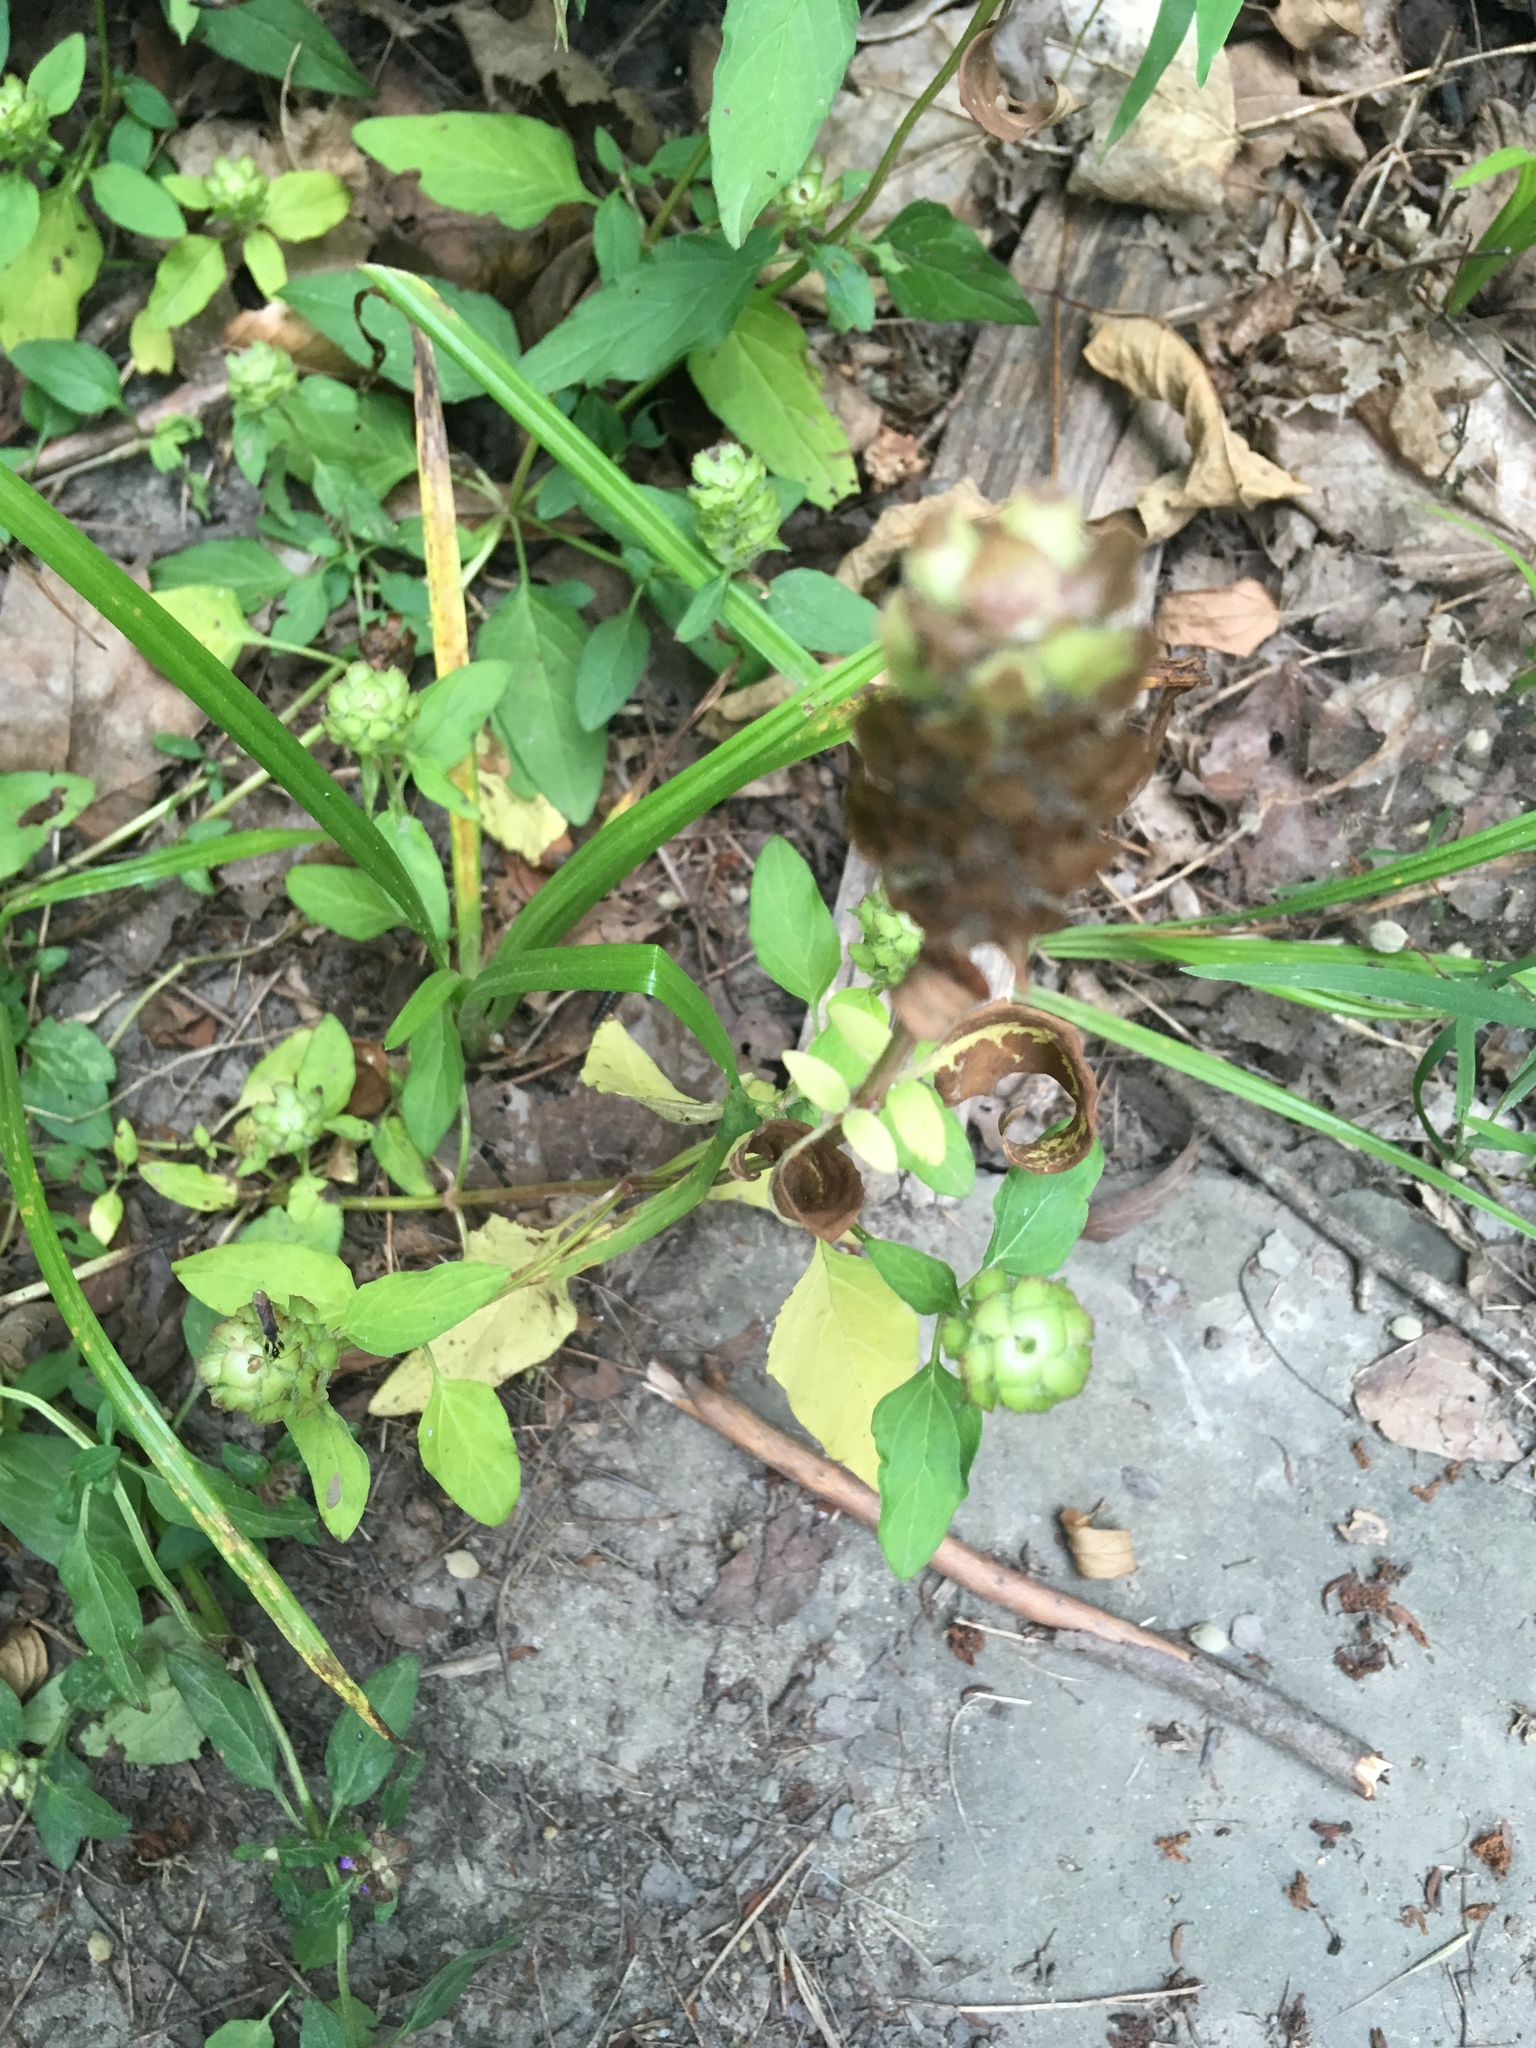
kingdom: Plantae
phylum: Tracheophyta
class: Magnoliopsida
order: Lamiales
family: Lamiaceae
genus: Prunella
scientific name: Prunella vulgaris
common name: Heal-all
